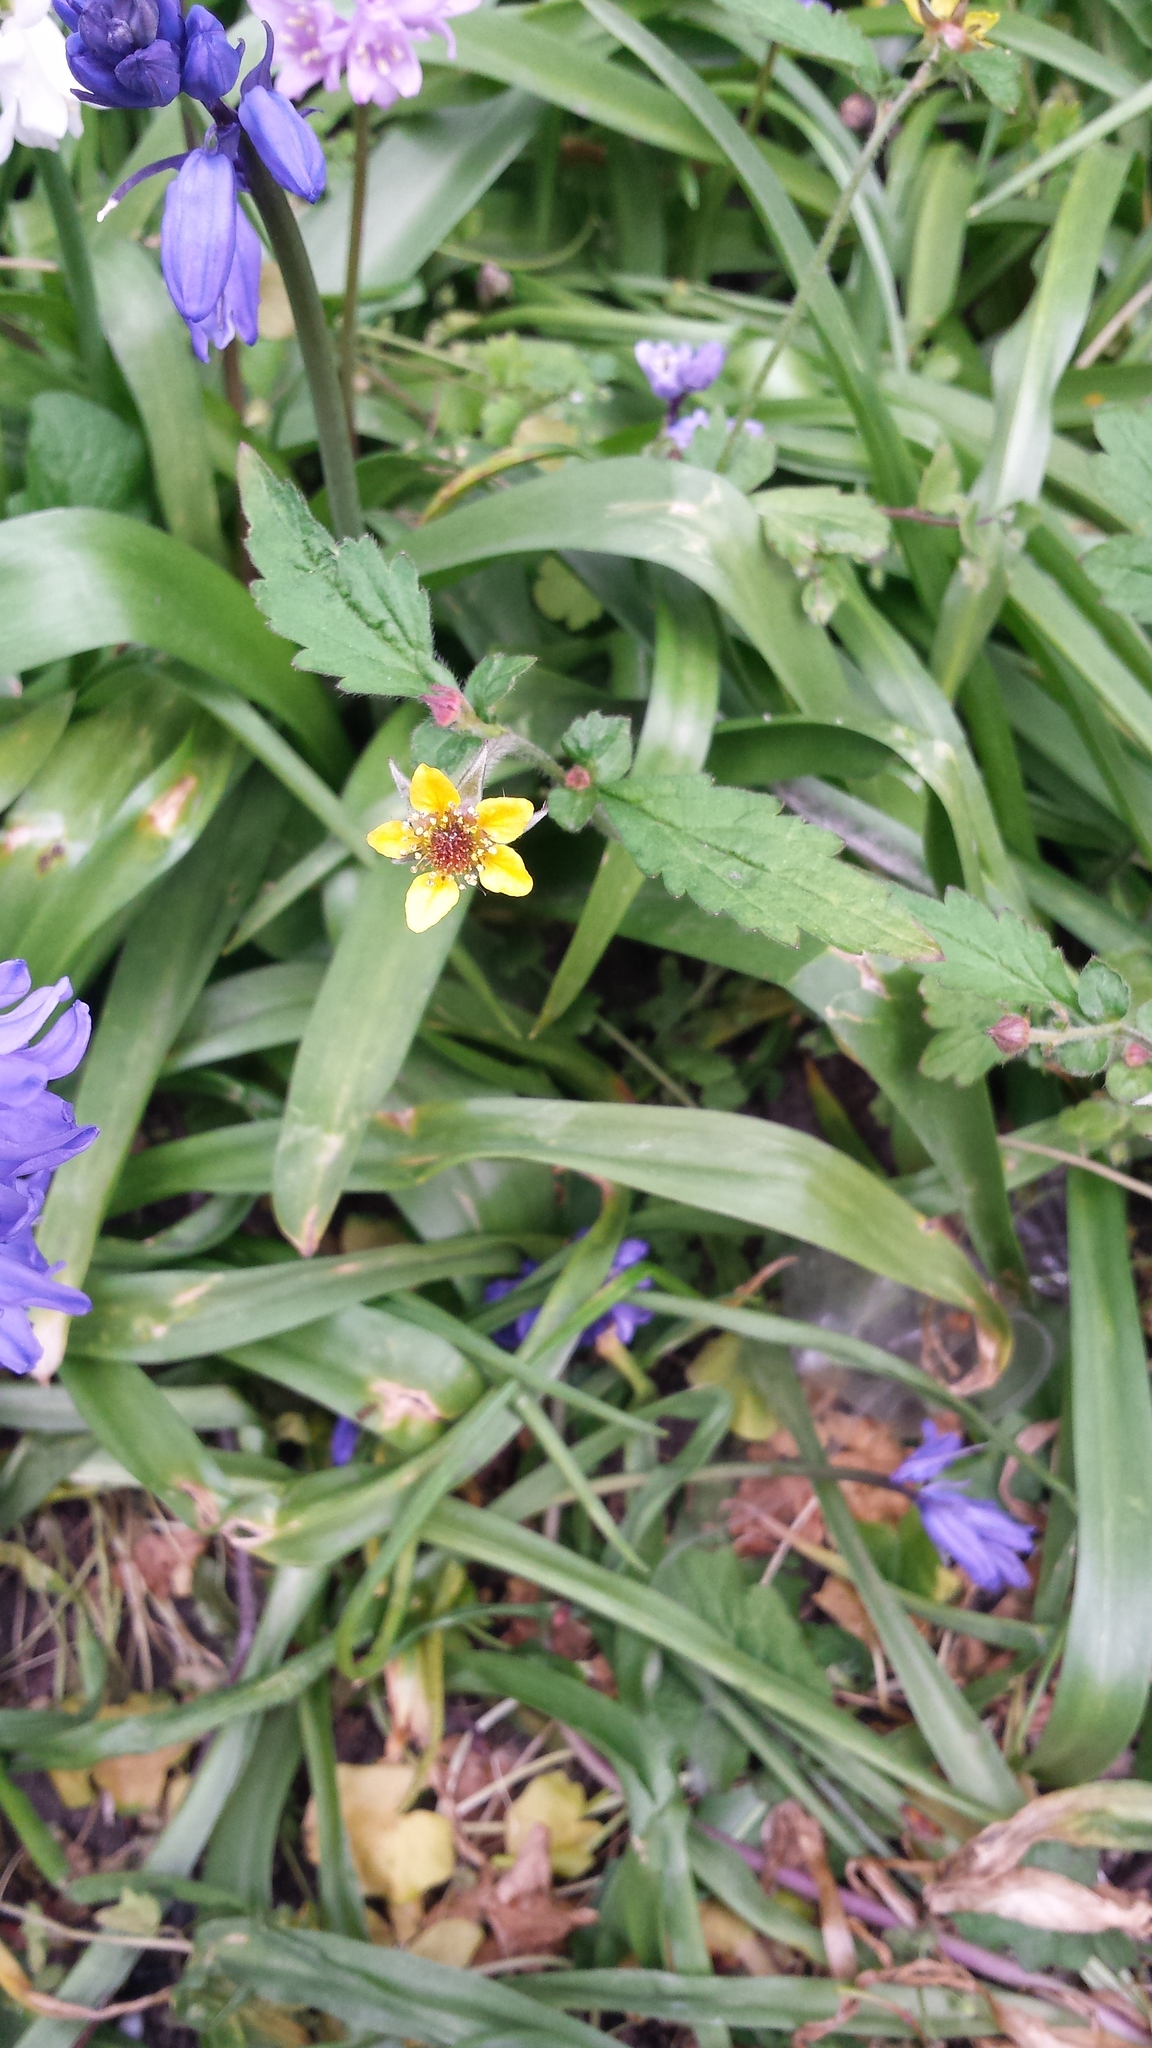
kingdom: Plantae
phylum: Tracheophyta
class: Magnoliopsida
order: Rosales
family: Rosaceae
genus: Geum
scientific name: Geum urbanum
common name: Wood avens
